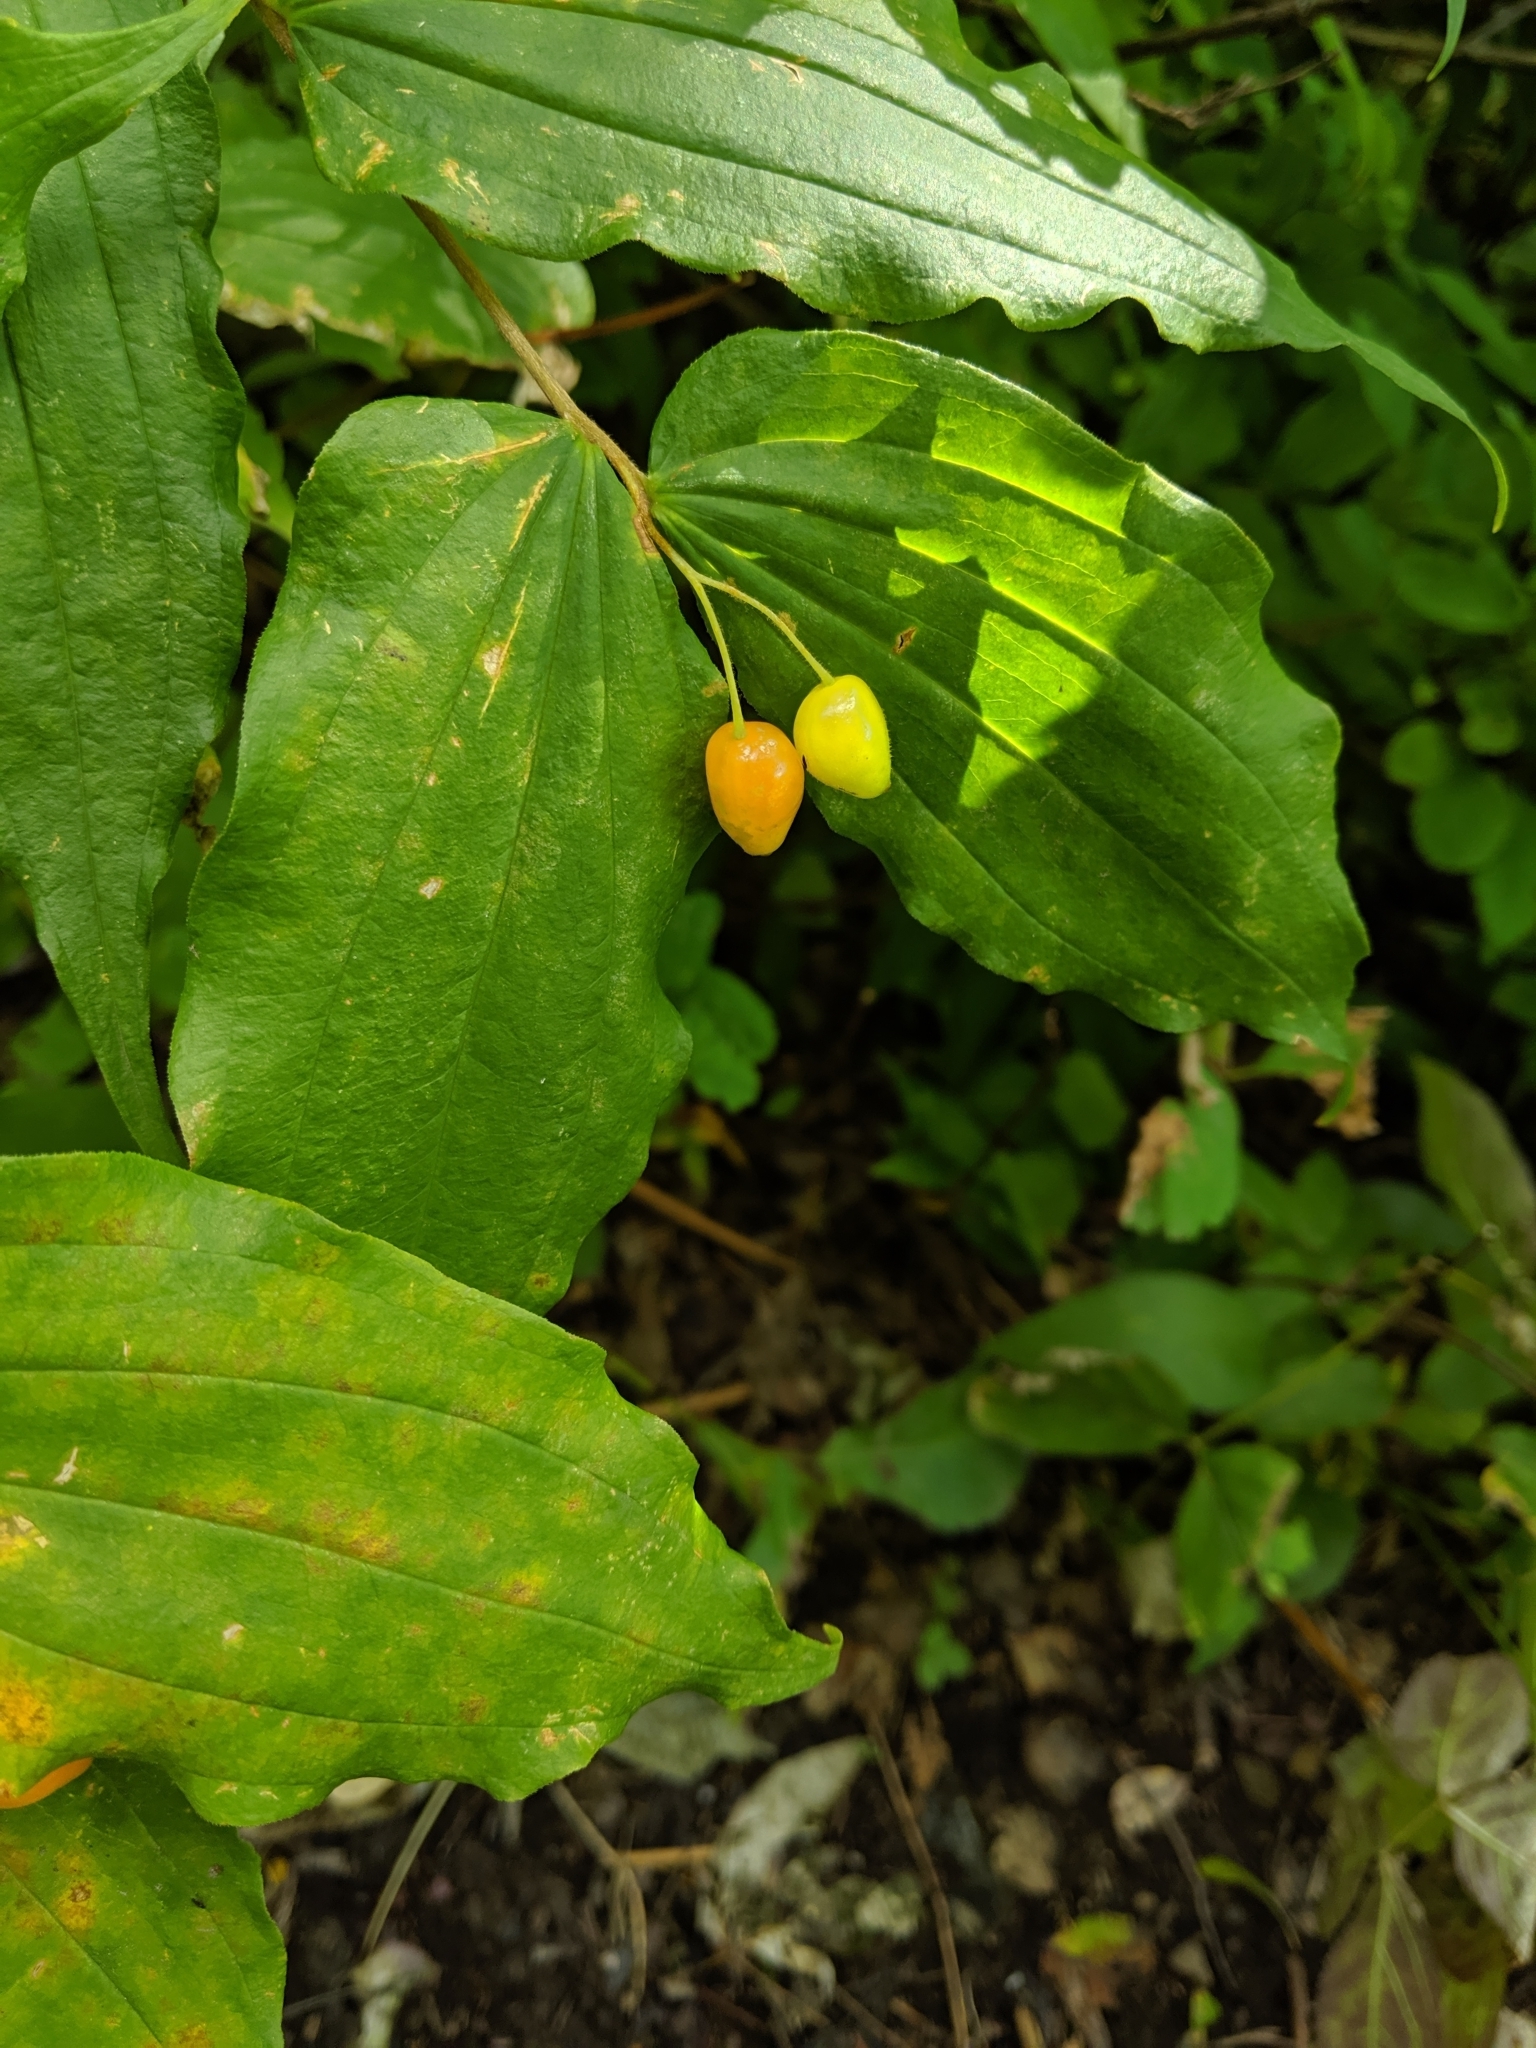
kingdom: Plantae
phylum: Tracheophyta
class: Liliopsida
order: Liliales
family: Liliaceae
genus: Prosartes
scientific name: Prosartes hookeri
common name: Fairy-bells
